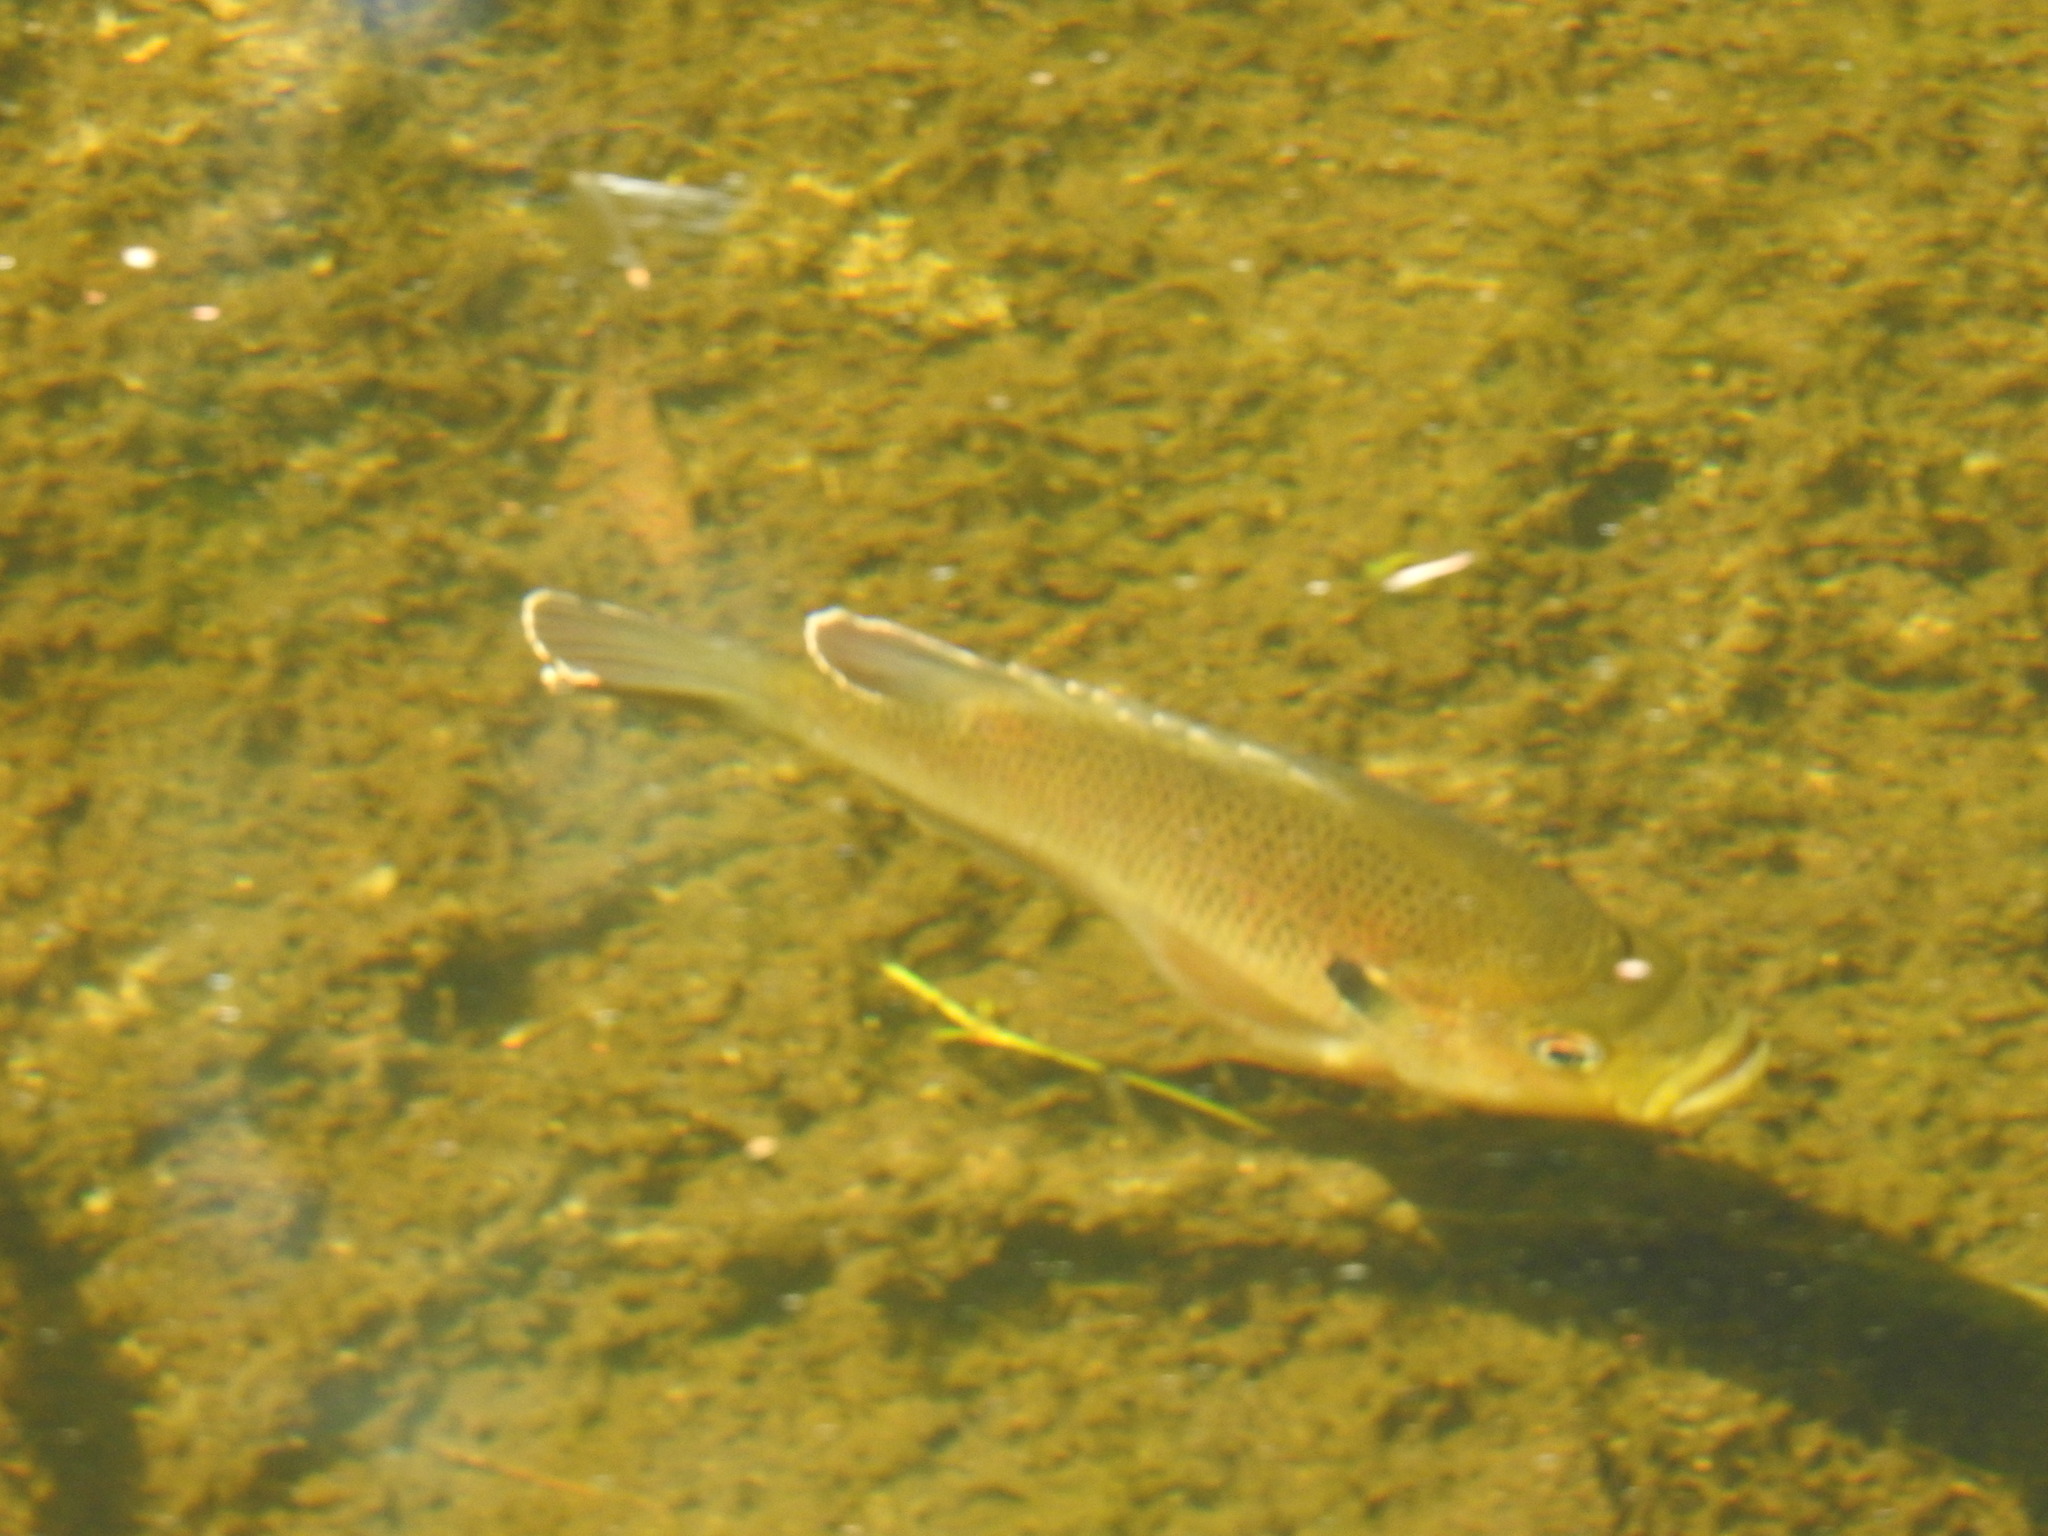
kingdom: Animalia
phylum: Chordata
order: Perciformes
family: Centrarchidae
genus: Lepomis
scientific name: Lepomis punctatus
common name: Spotted sunfish
